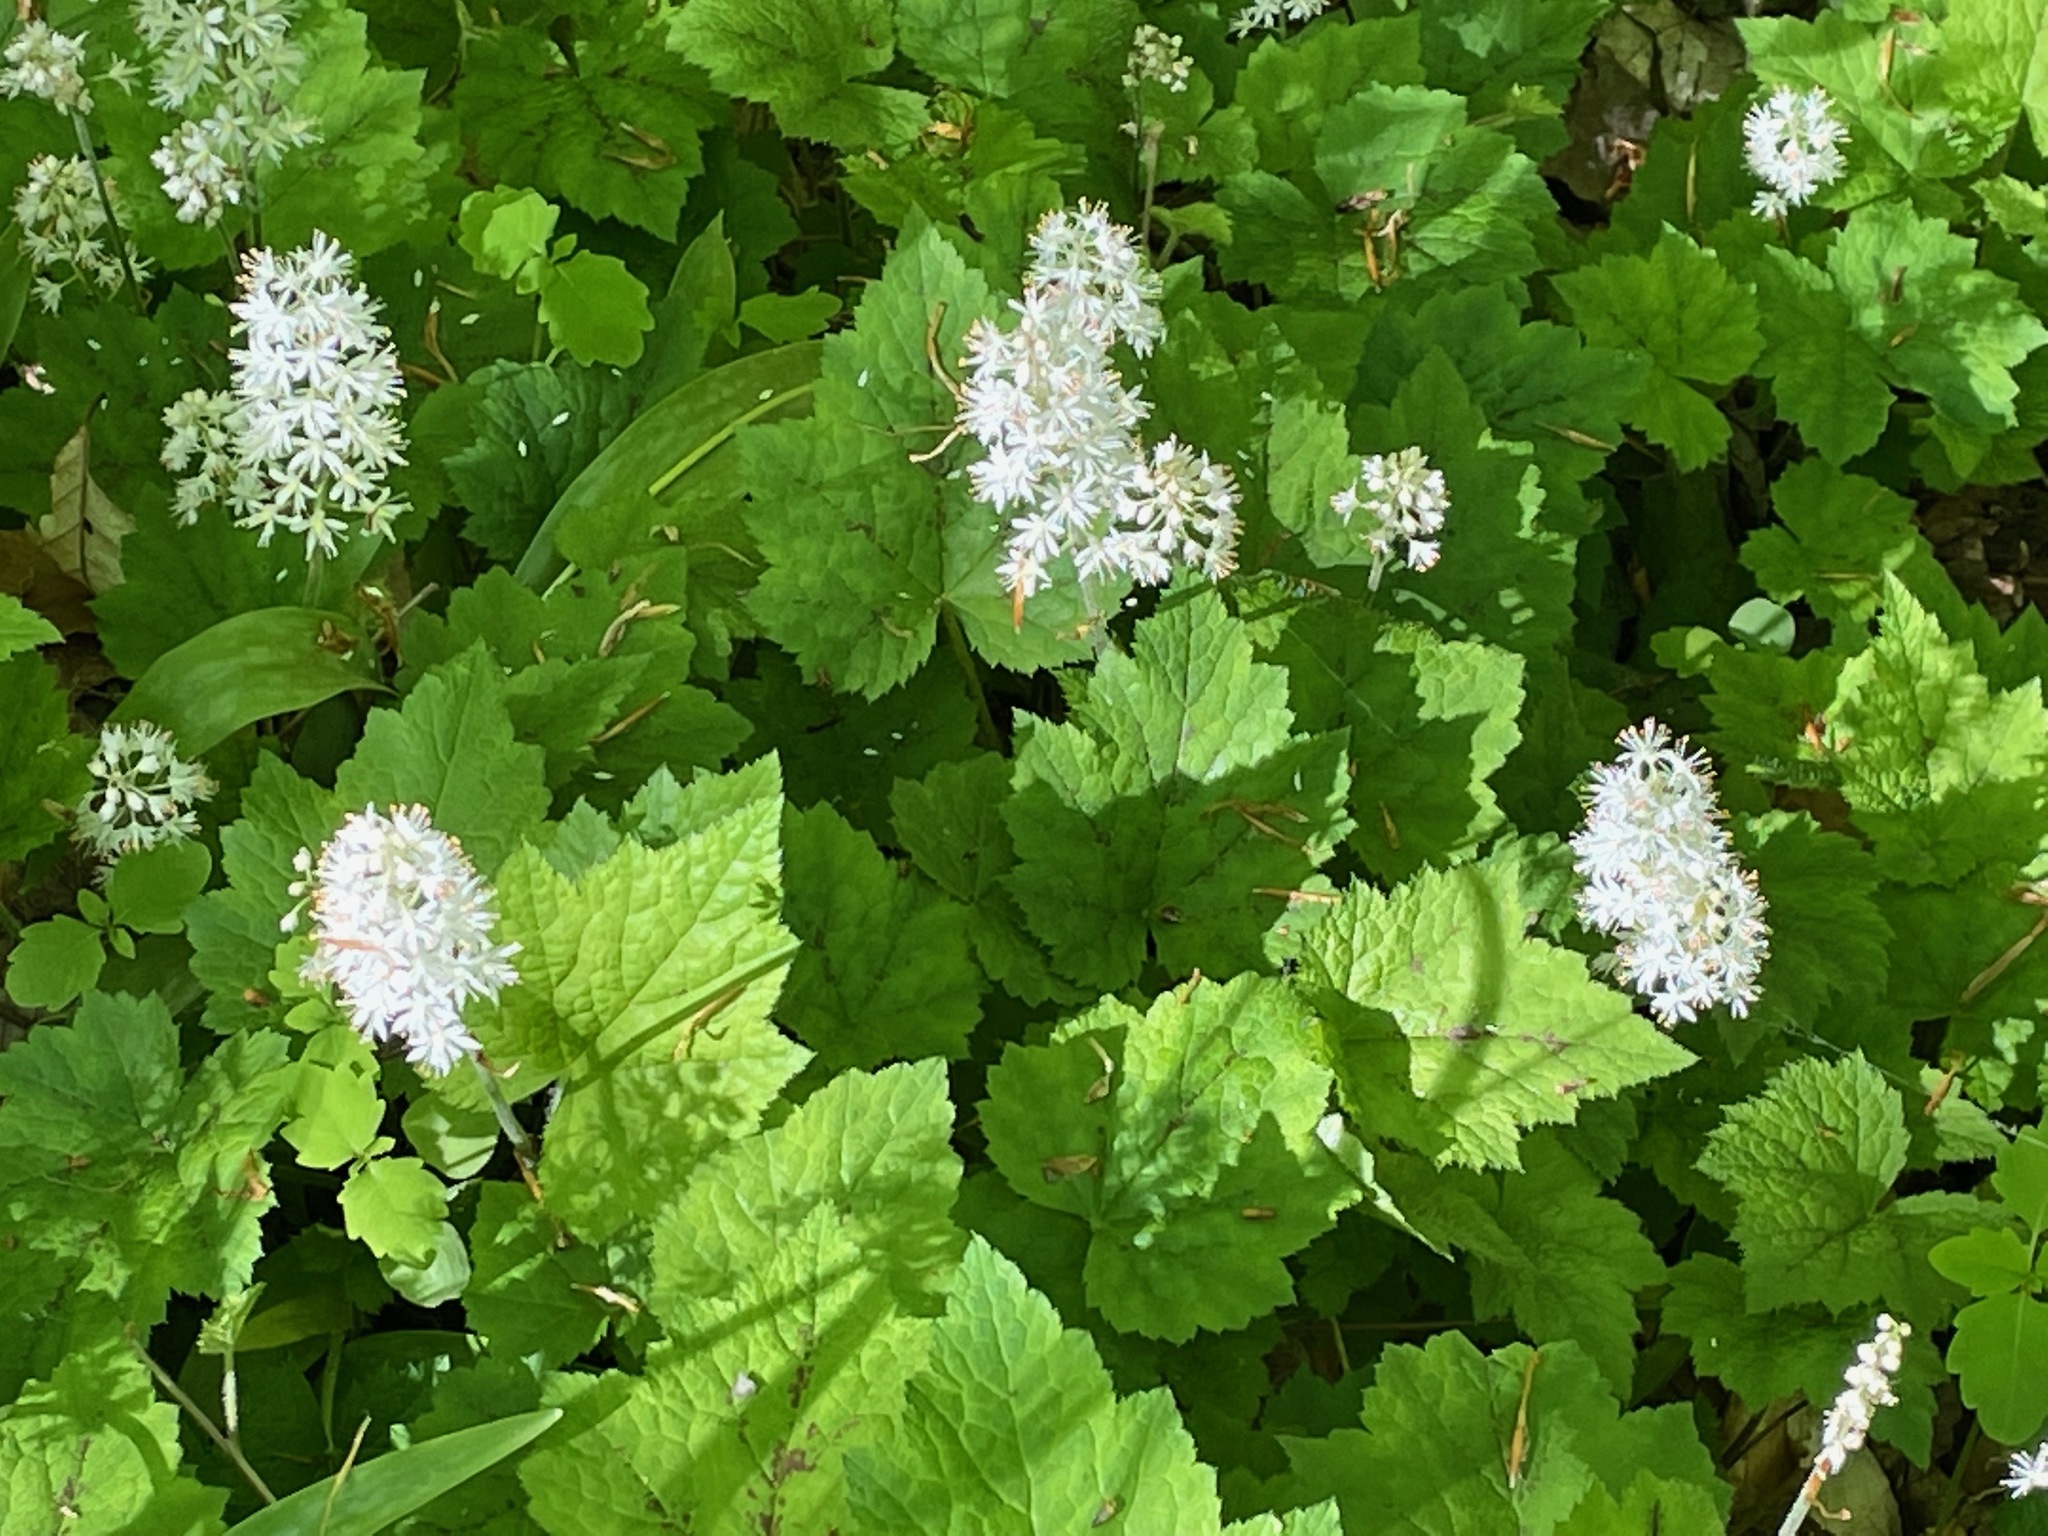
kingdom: Plantae
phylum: Tracheophyta
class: Magnoliopsida
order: Saxifragales
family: Saxifragaceae
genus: Tiarella
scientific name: Tiarella stolonifera
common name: Stoloniferous foamflower
